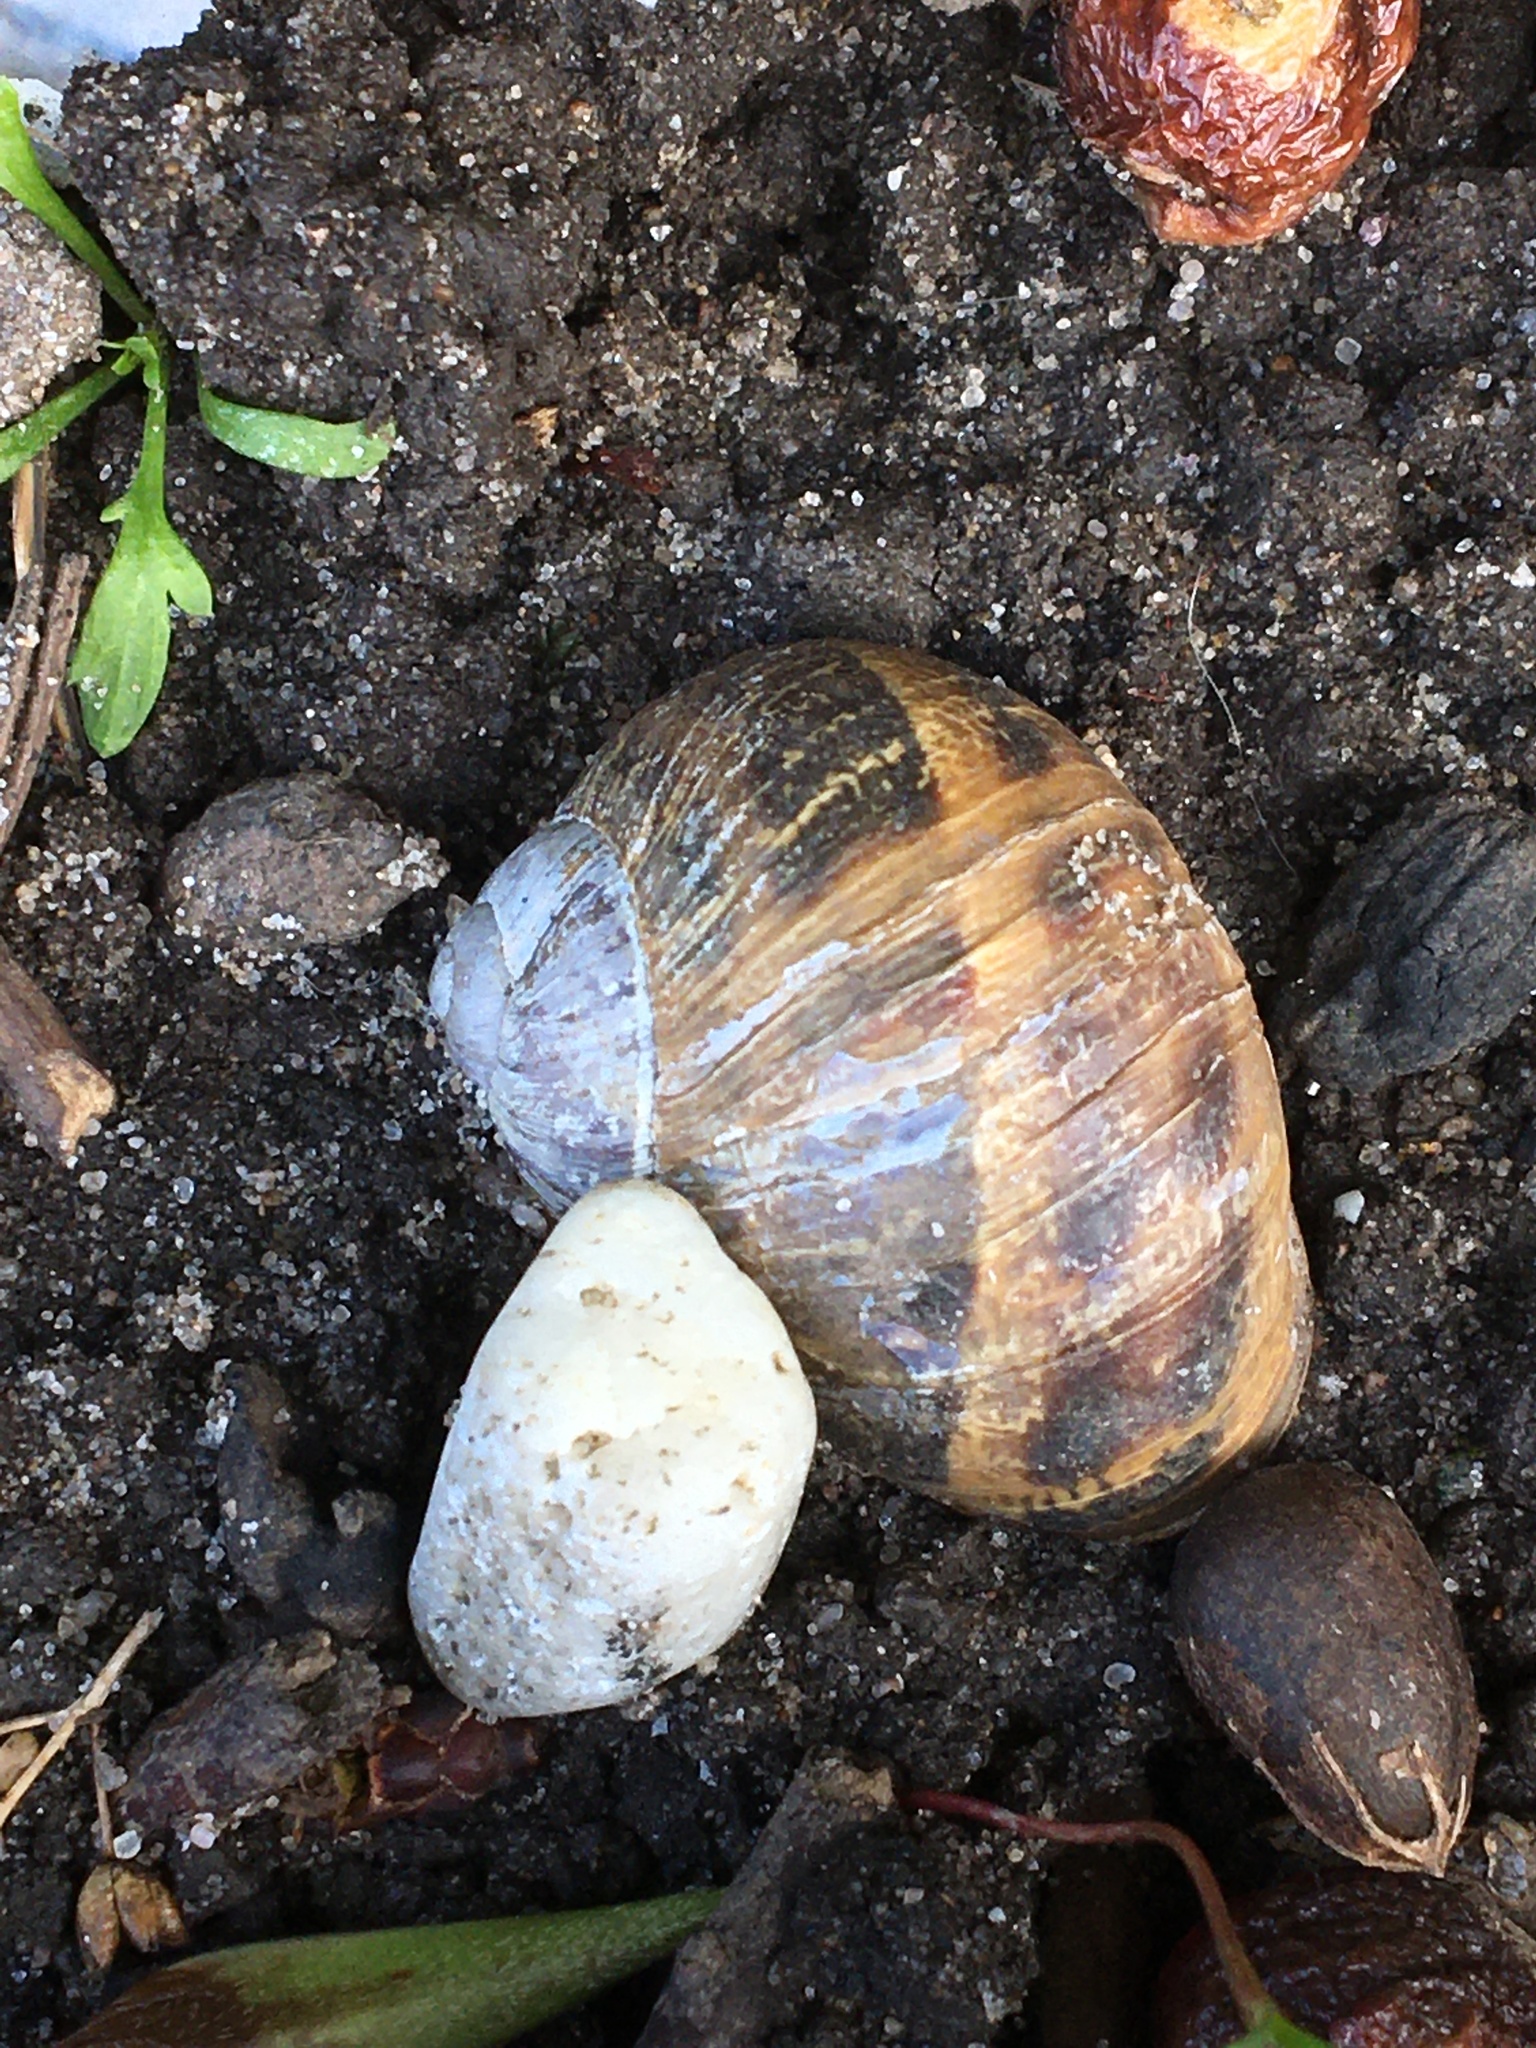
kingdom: Animalia
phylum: Mollusca
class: Gastropoda
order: Stylommatophora
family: Helicidae
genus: Cornu
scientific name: Cornu aspersum
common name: Brown garden snail
